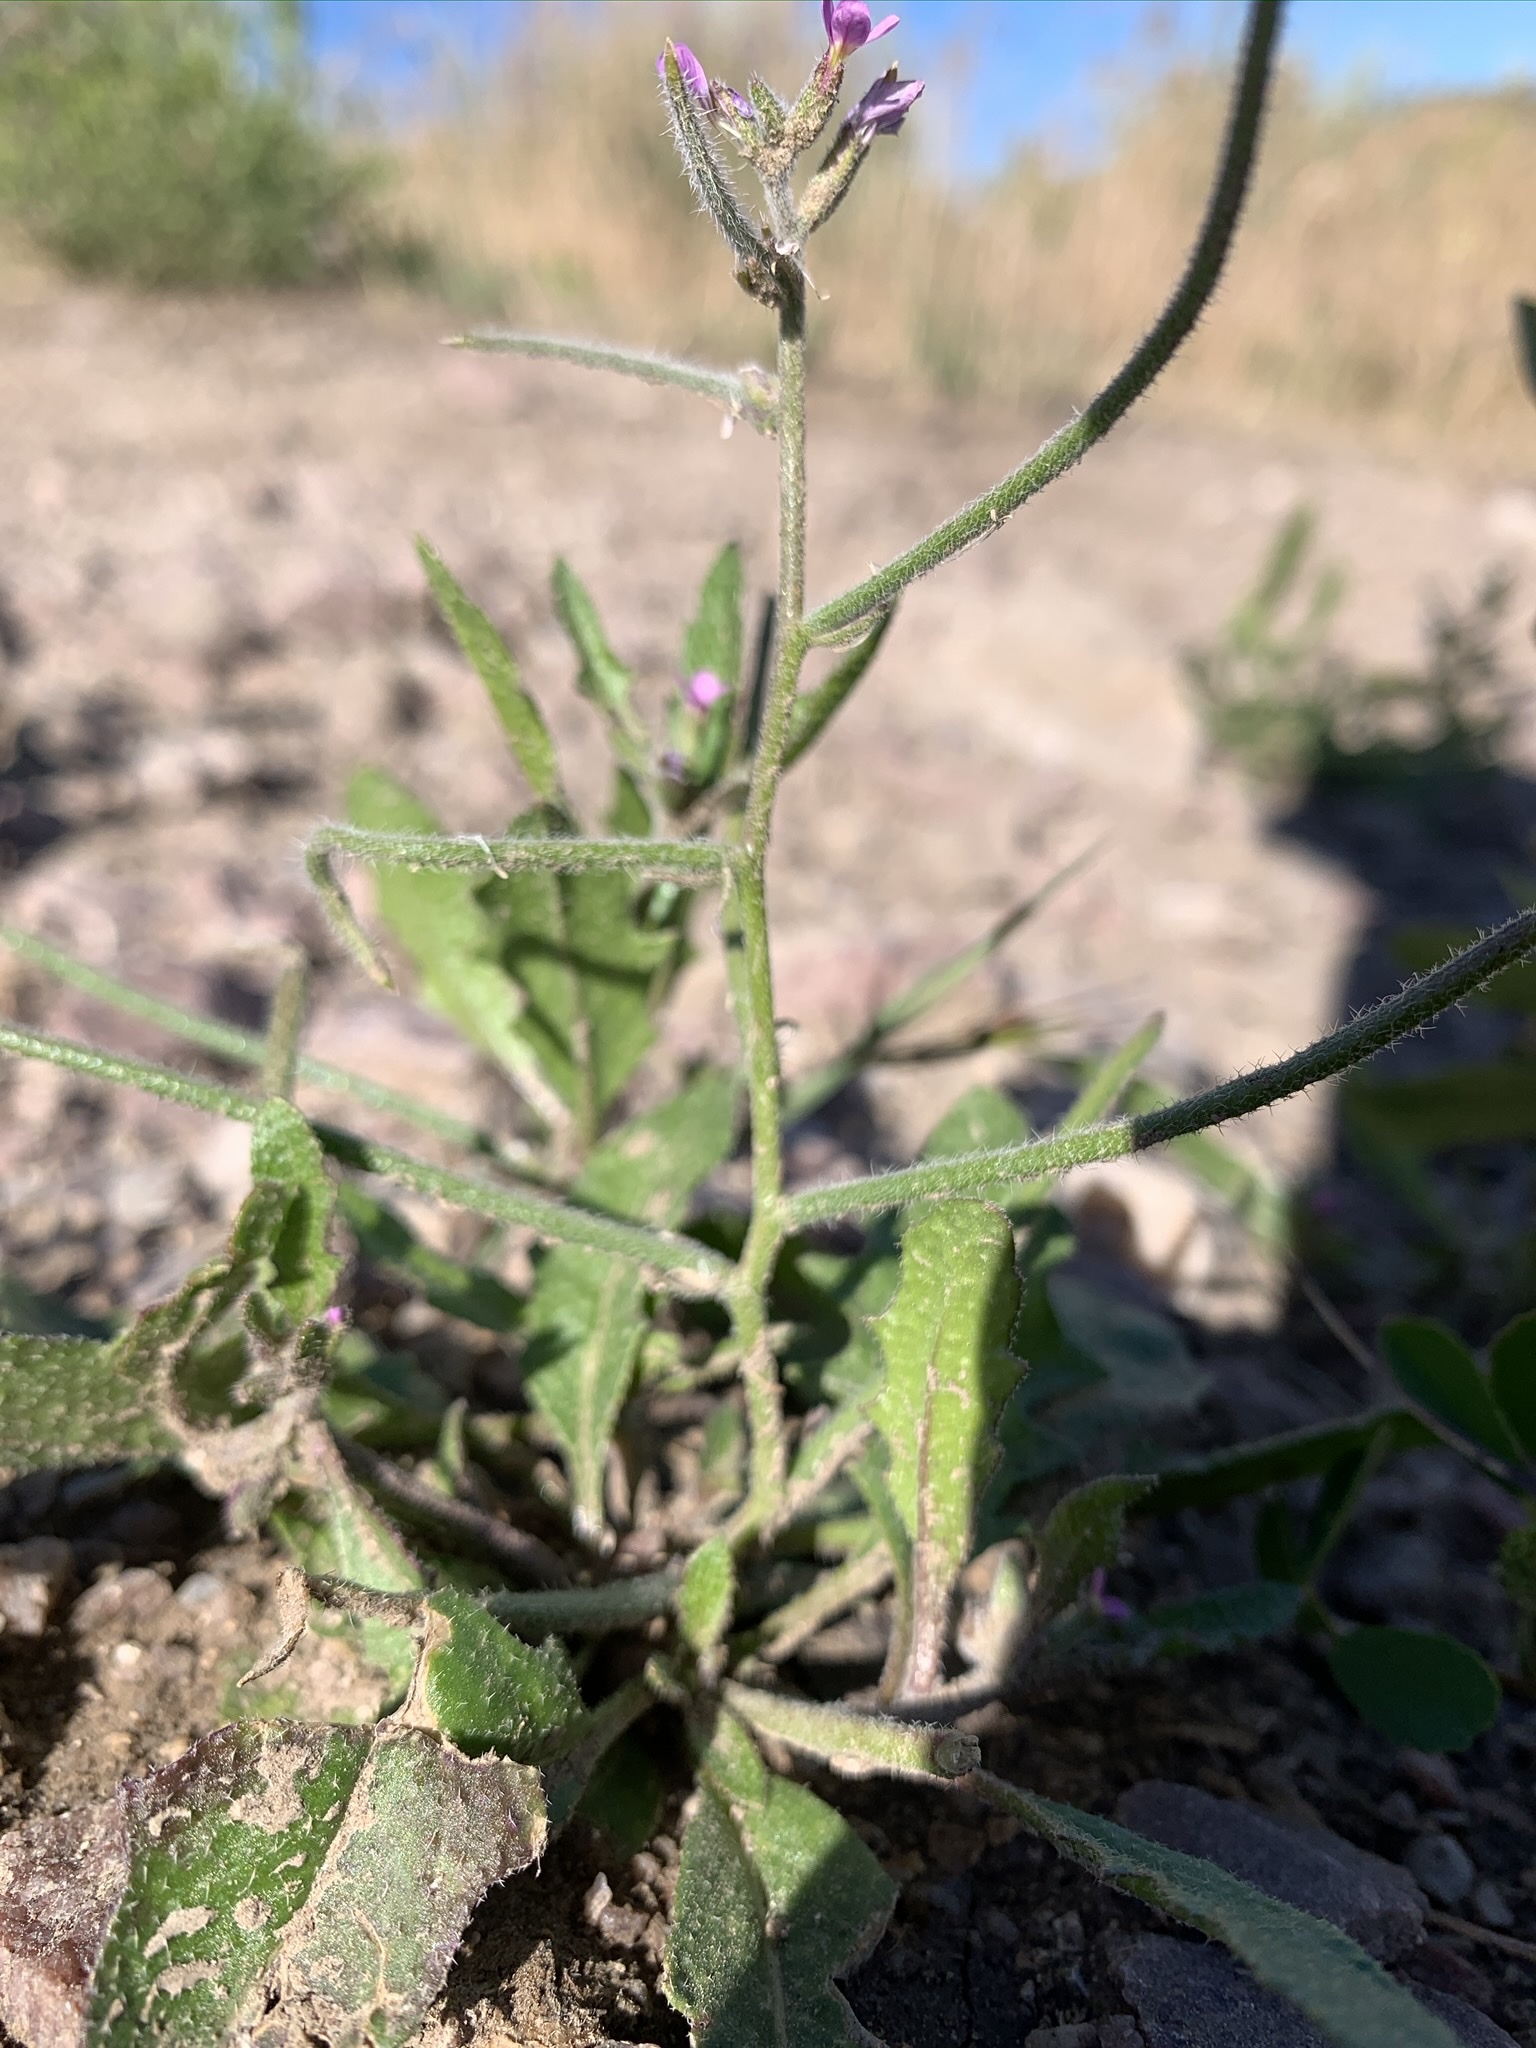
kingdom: Plantae
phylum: Tracheophyta
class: Magnoliopsida
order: Brassicales
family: Brassicaceae
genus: Chorispora
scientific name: Chorispora tenella
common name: Crossflower
